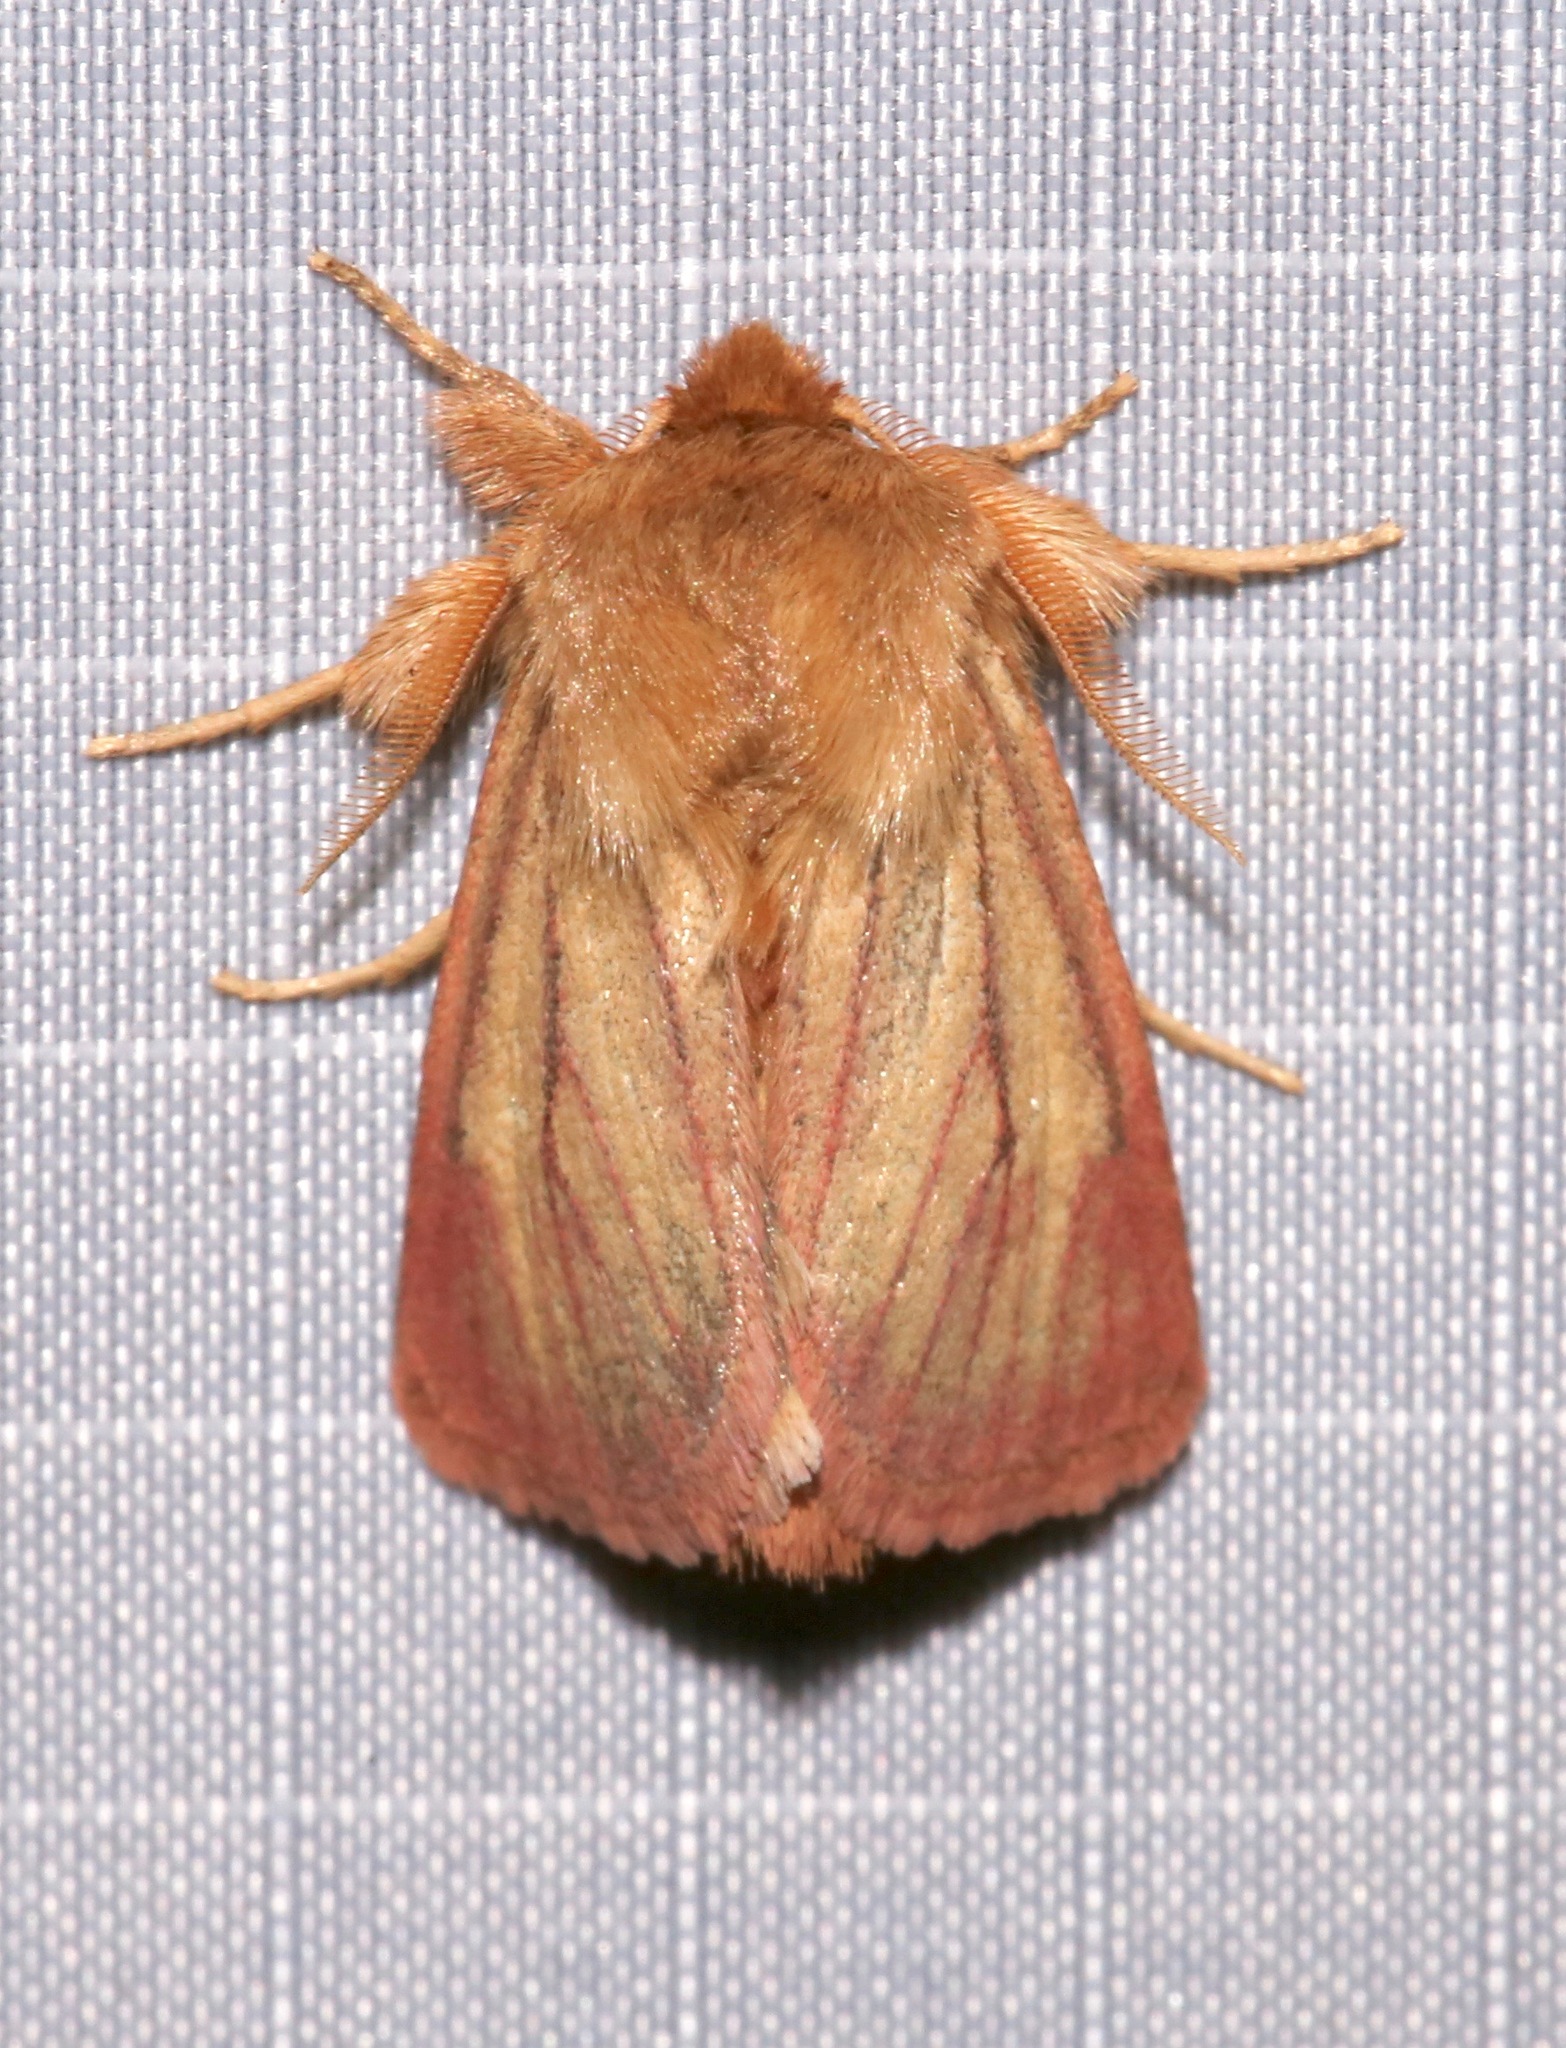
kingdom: Animalia
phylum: Arthropoda
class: Insecta
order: Lepidoptera
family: Noctuidae
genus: Nephelodes
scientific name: Nephelodes carminata
